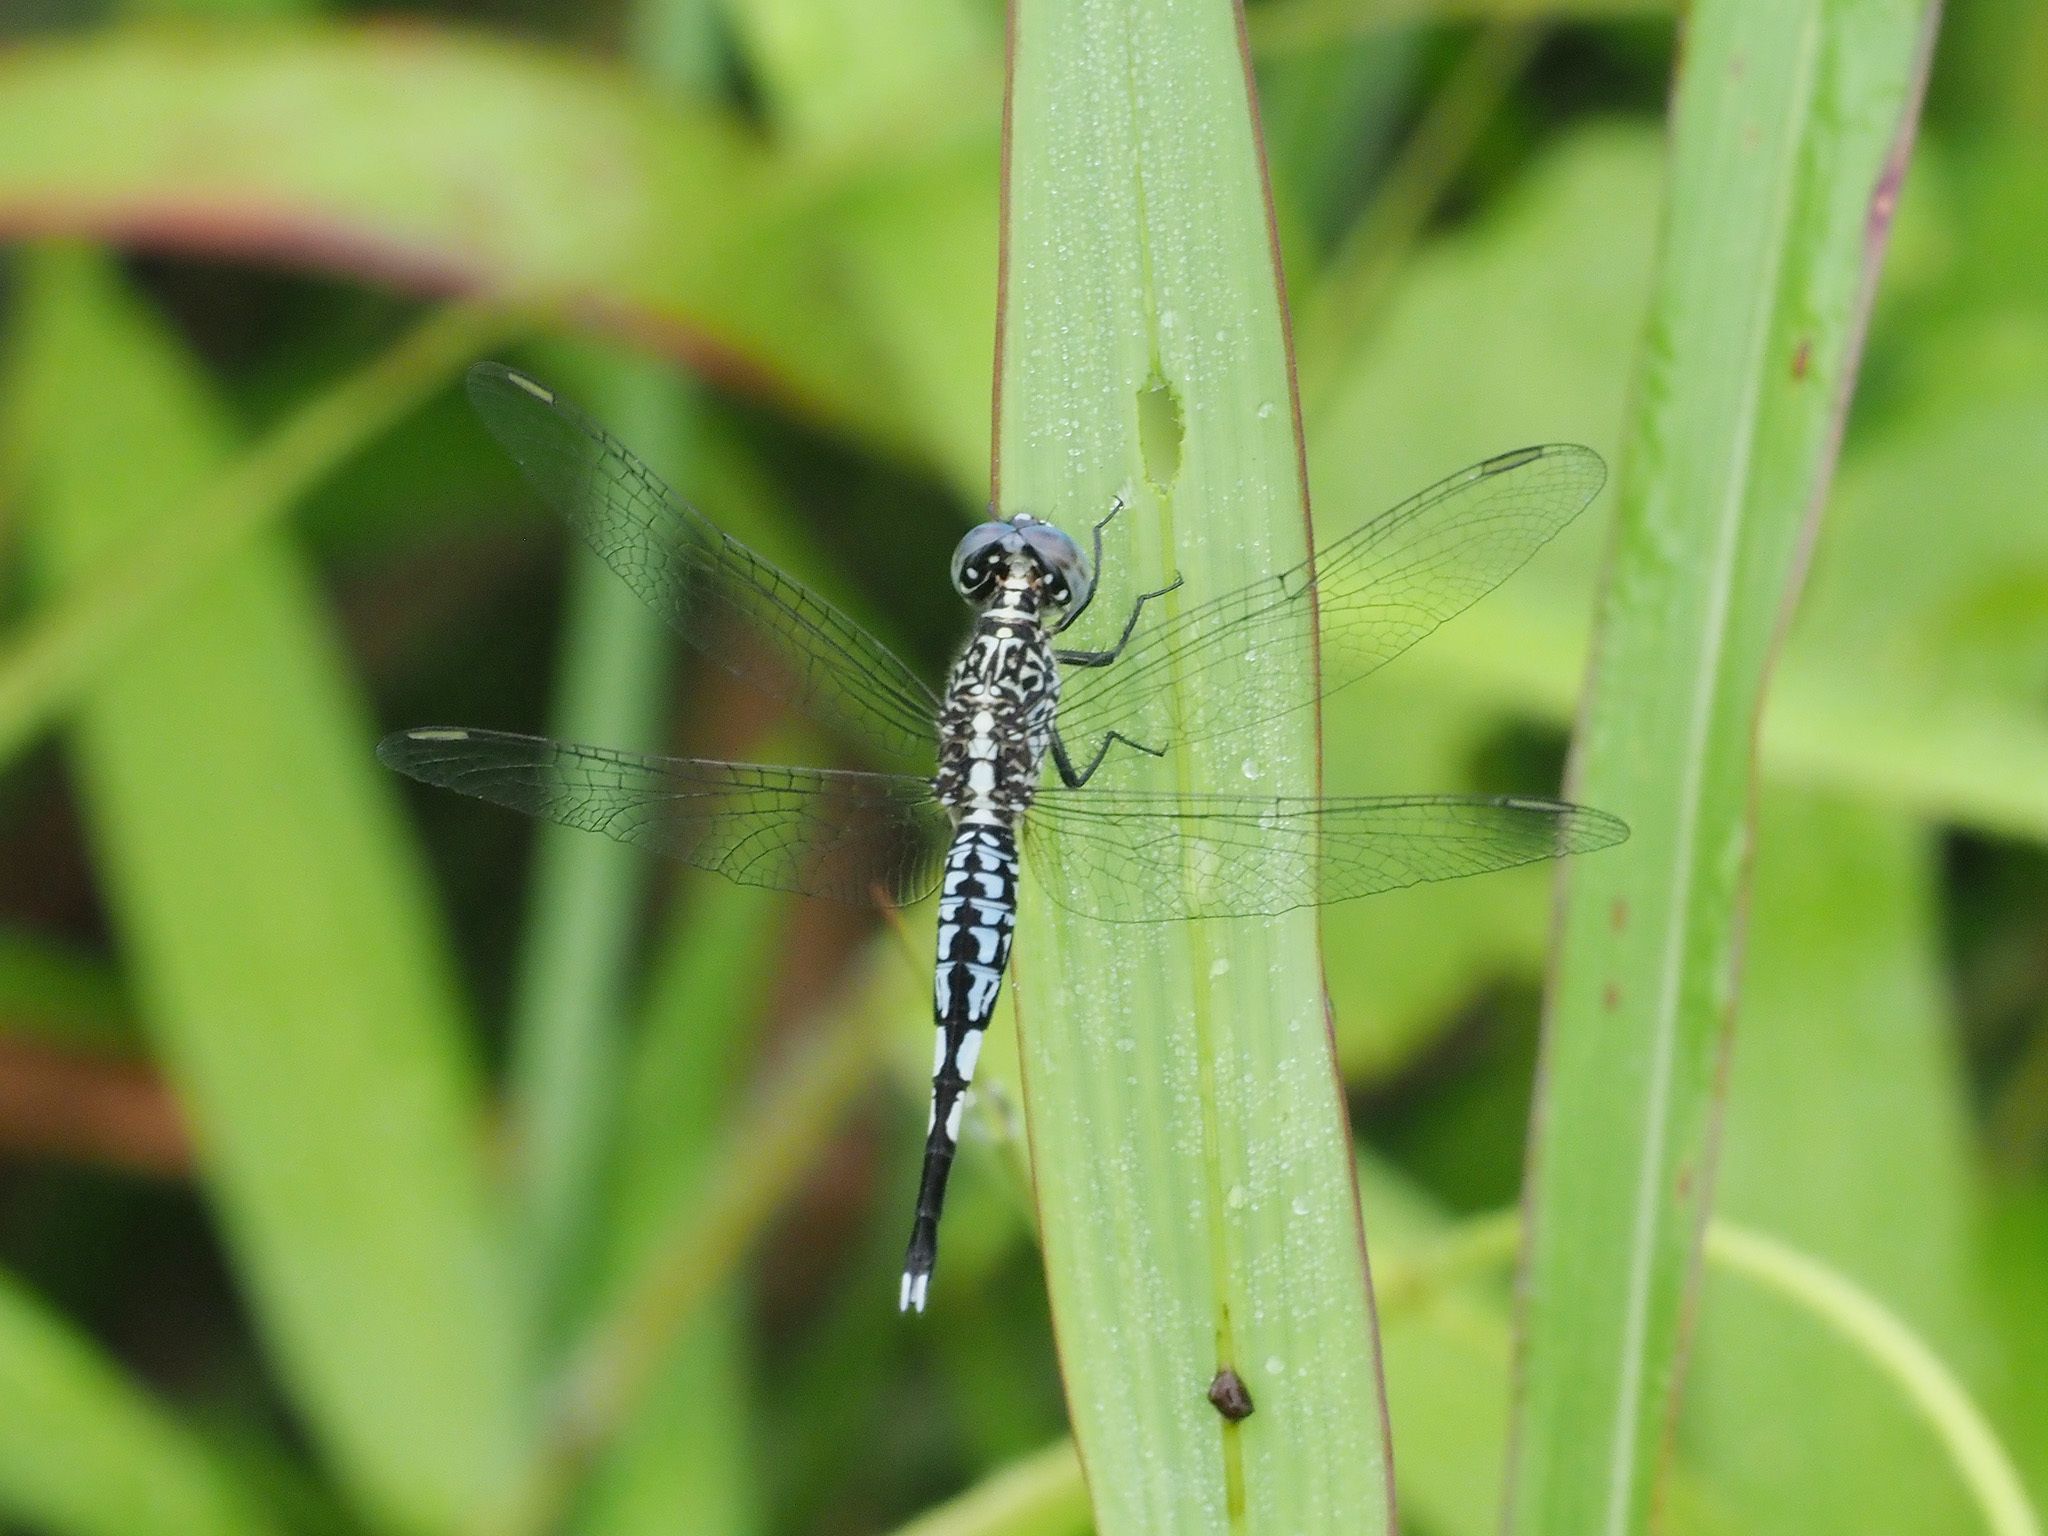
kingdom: Animalia
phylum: Arthropoda
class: Insecta
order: Odonata
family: Libellulidae
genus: Acisoma
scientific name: Acisoma panorpoides
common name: Asian pintail
